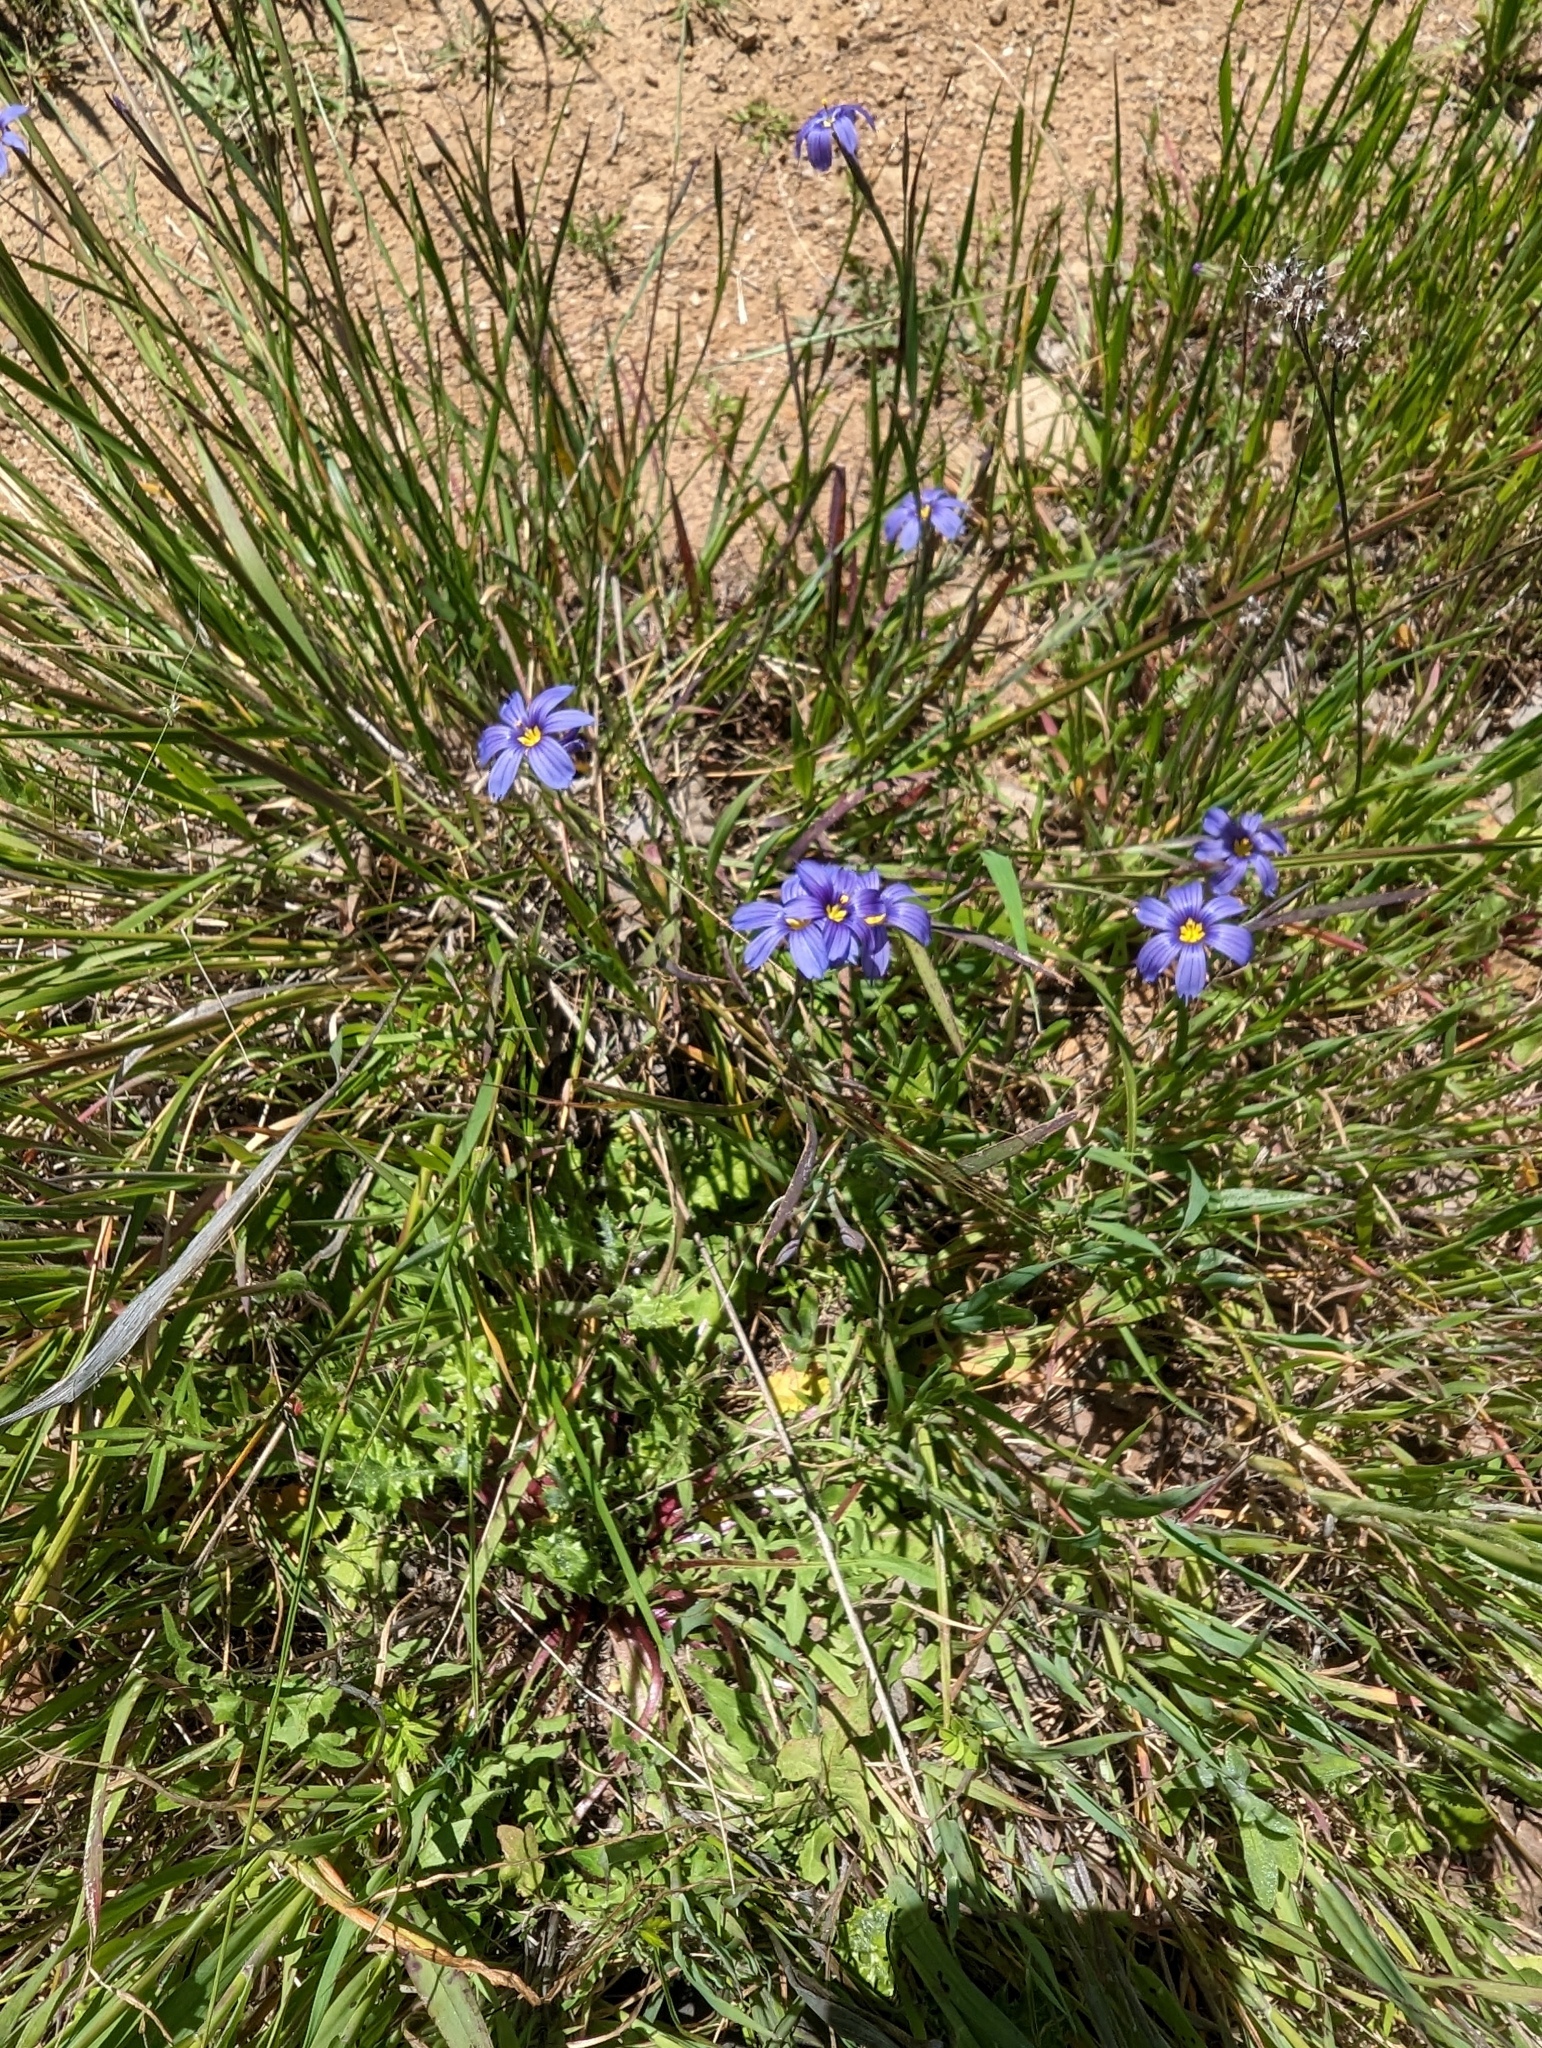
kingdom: Plantae
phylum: Tracheophyta
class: Liliopsida
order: Asparagales
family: Iridaceae
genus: Sisyrinchium
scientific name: Sisyrinchium bellum
